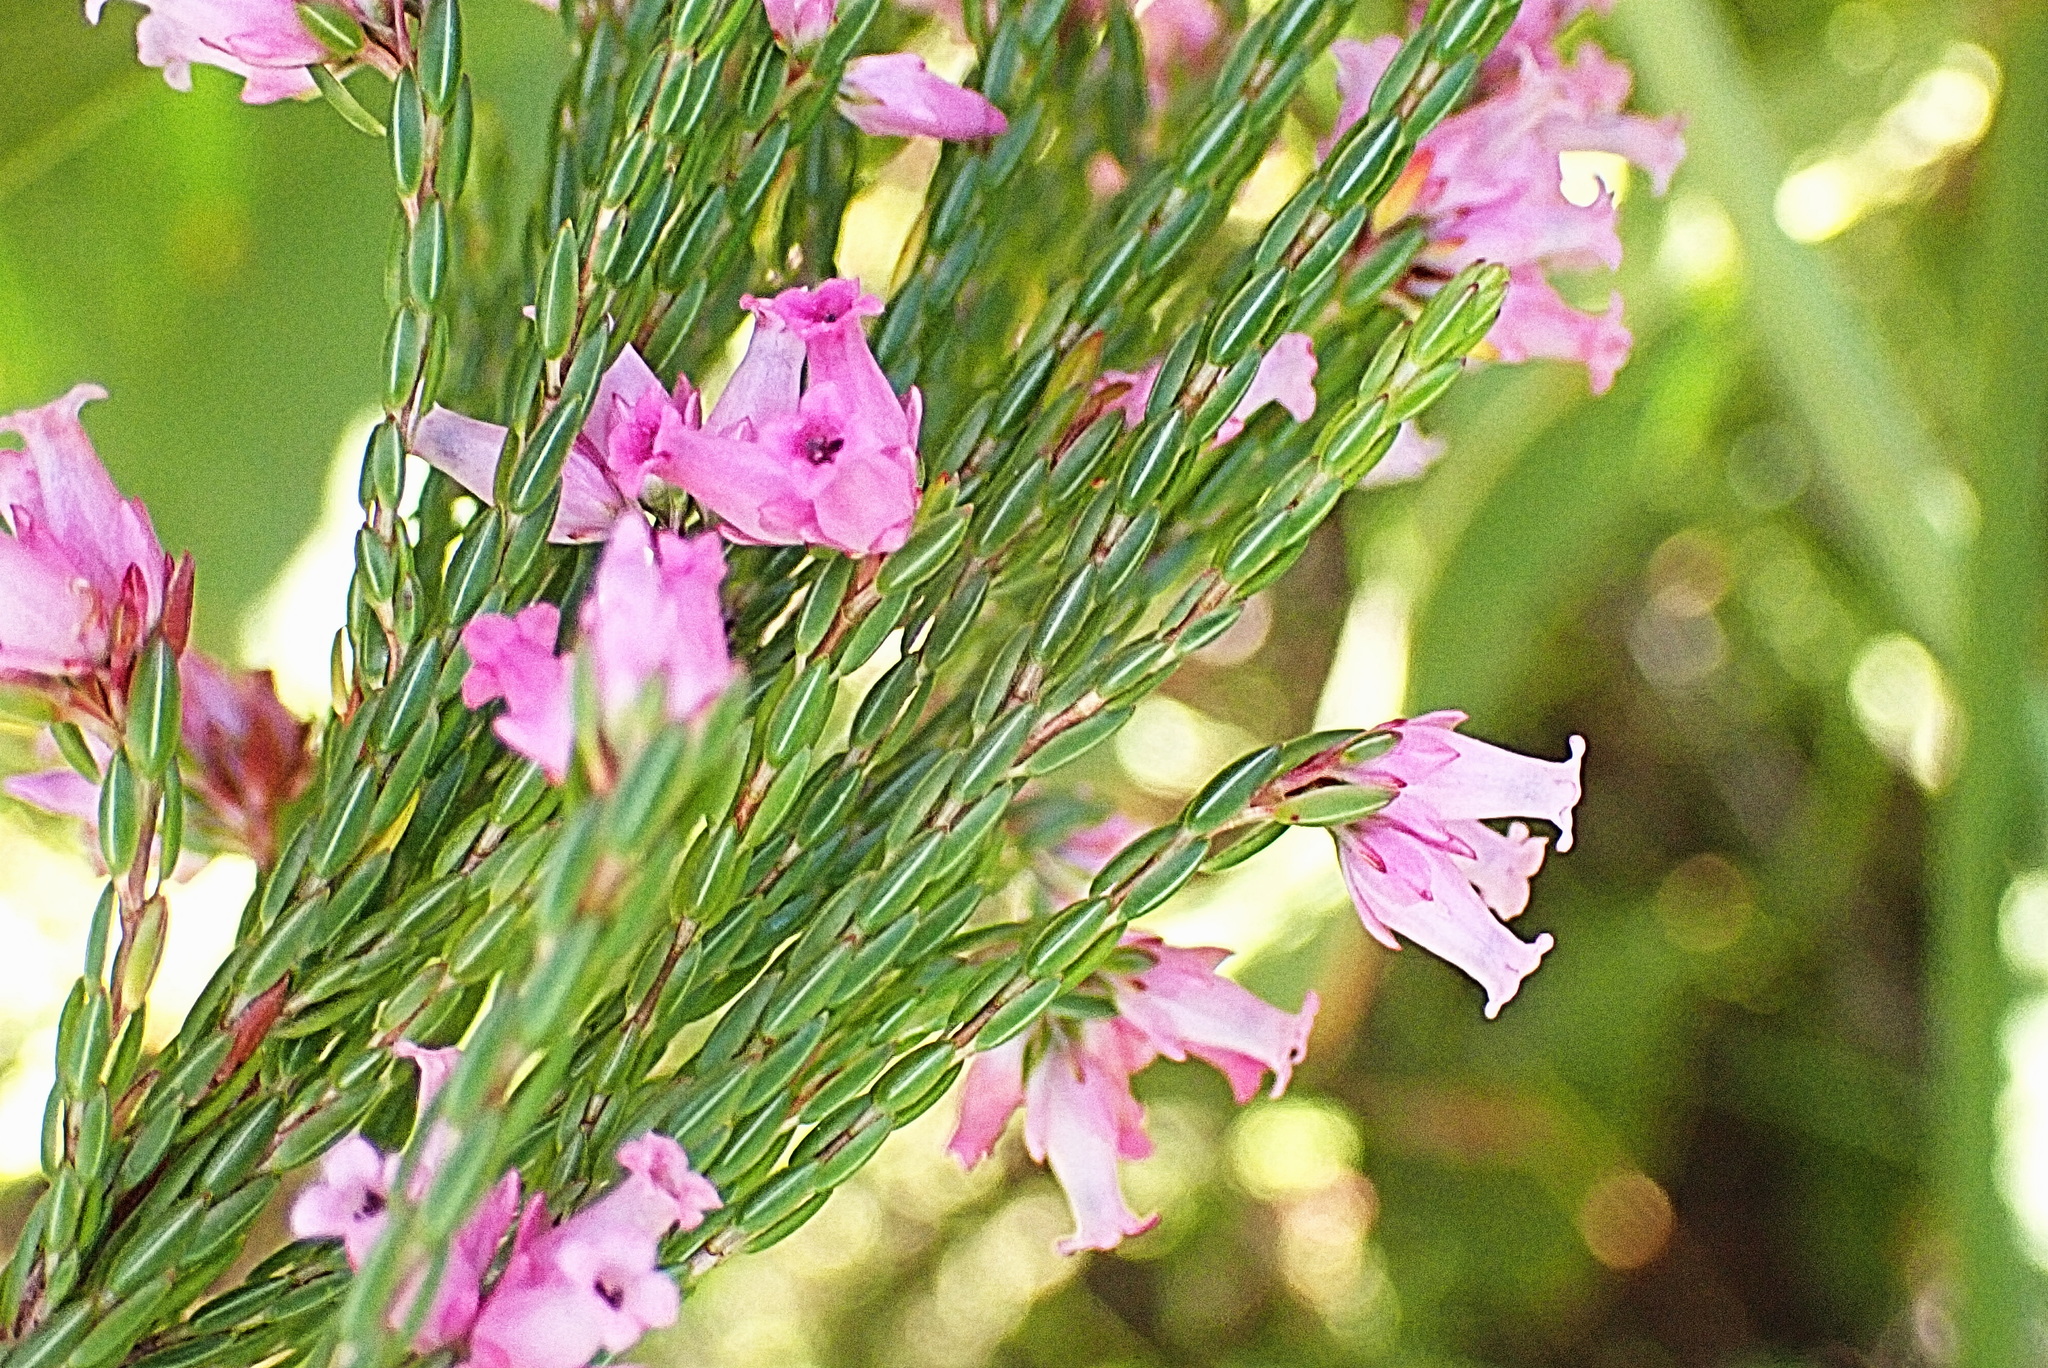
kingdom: Plantae
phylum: Tracheophyta
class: Magnoliopsida
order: Ericales
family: Ericaceae
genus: Erica
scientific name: Erica steinbergiana
